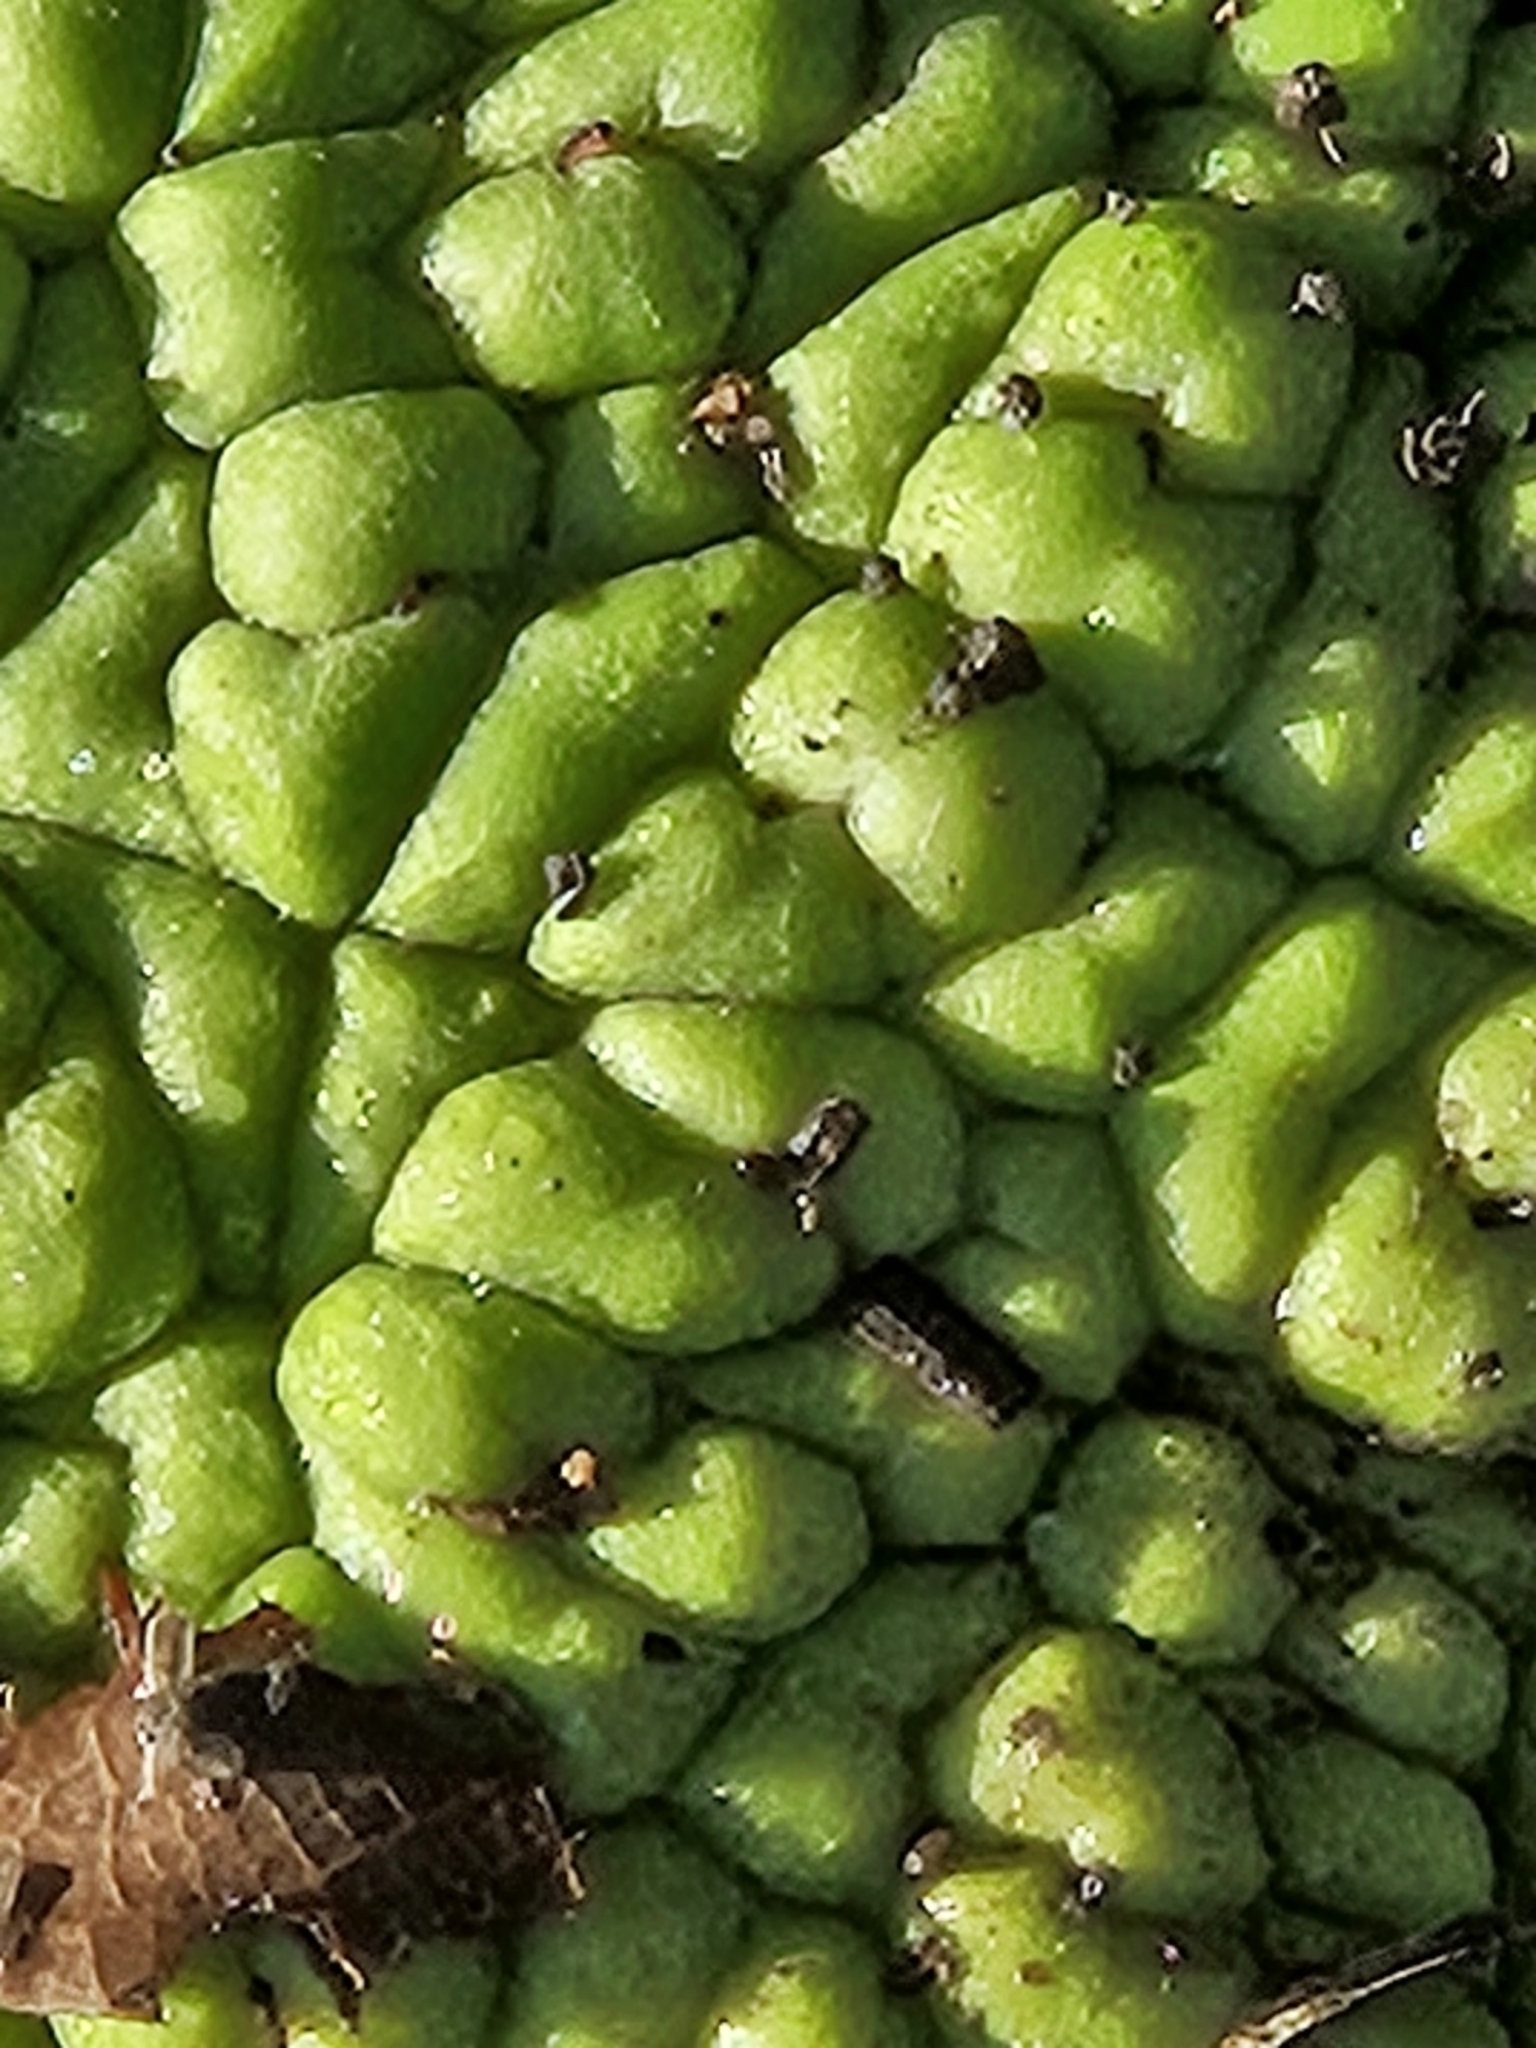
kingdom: Plantae
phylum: Tracheophyta
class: Magnoliopsida
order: Rosales
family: Moraceae
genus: Maclura
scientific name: Maclura pomifera
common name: Osage-orange
